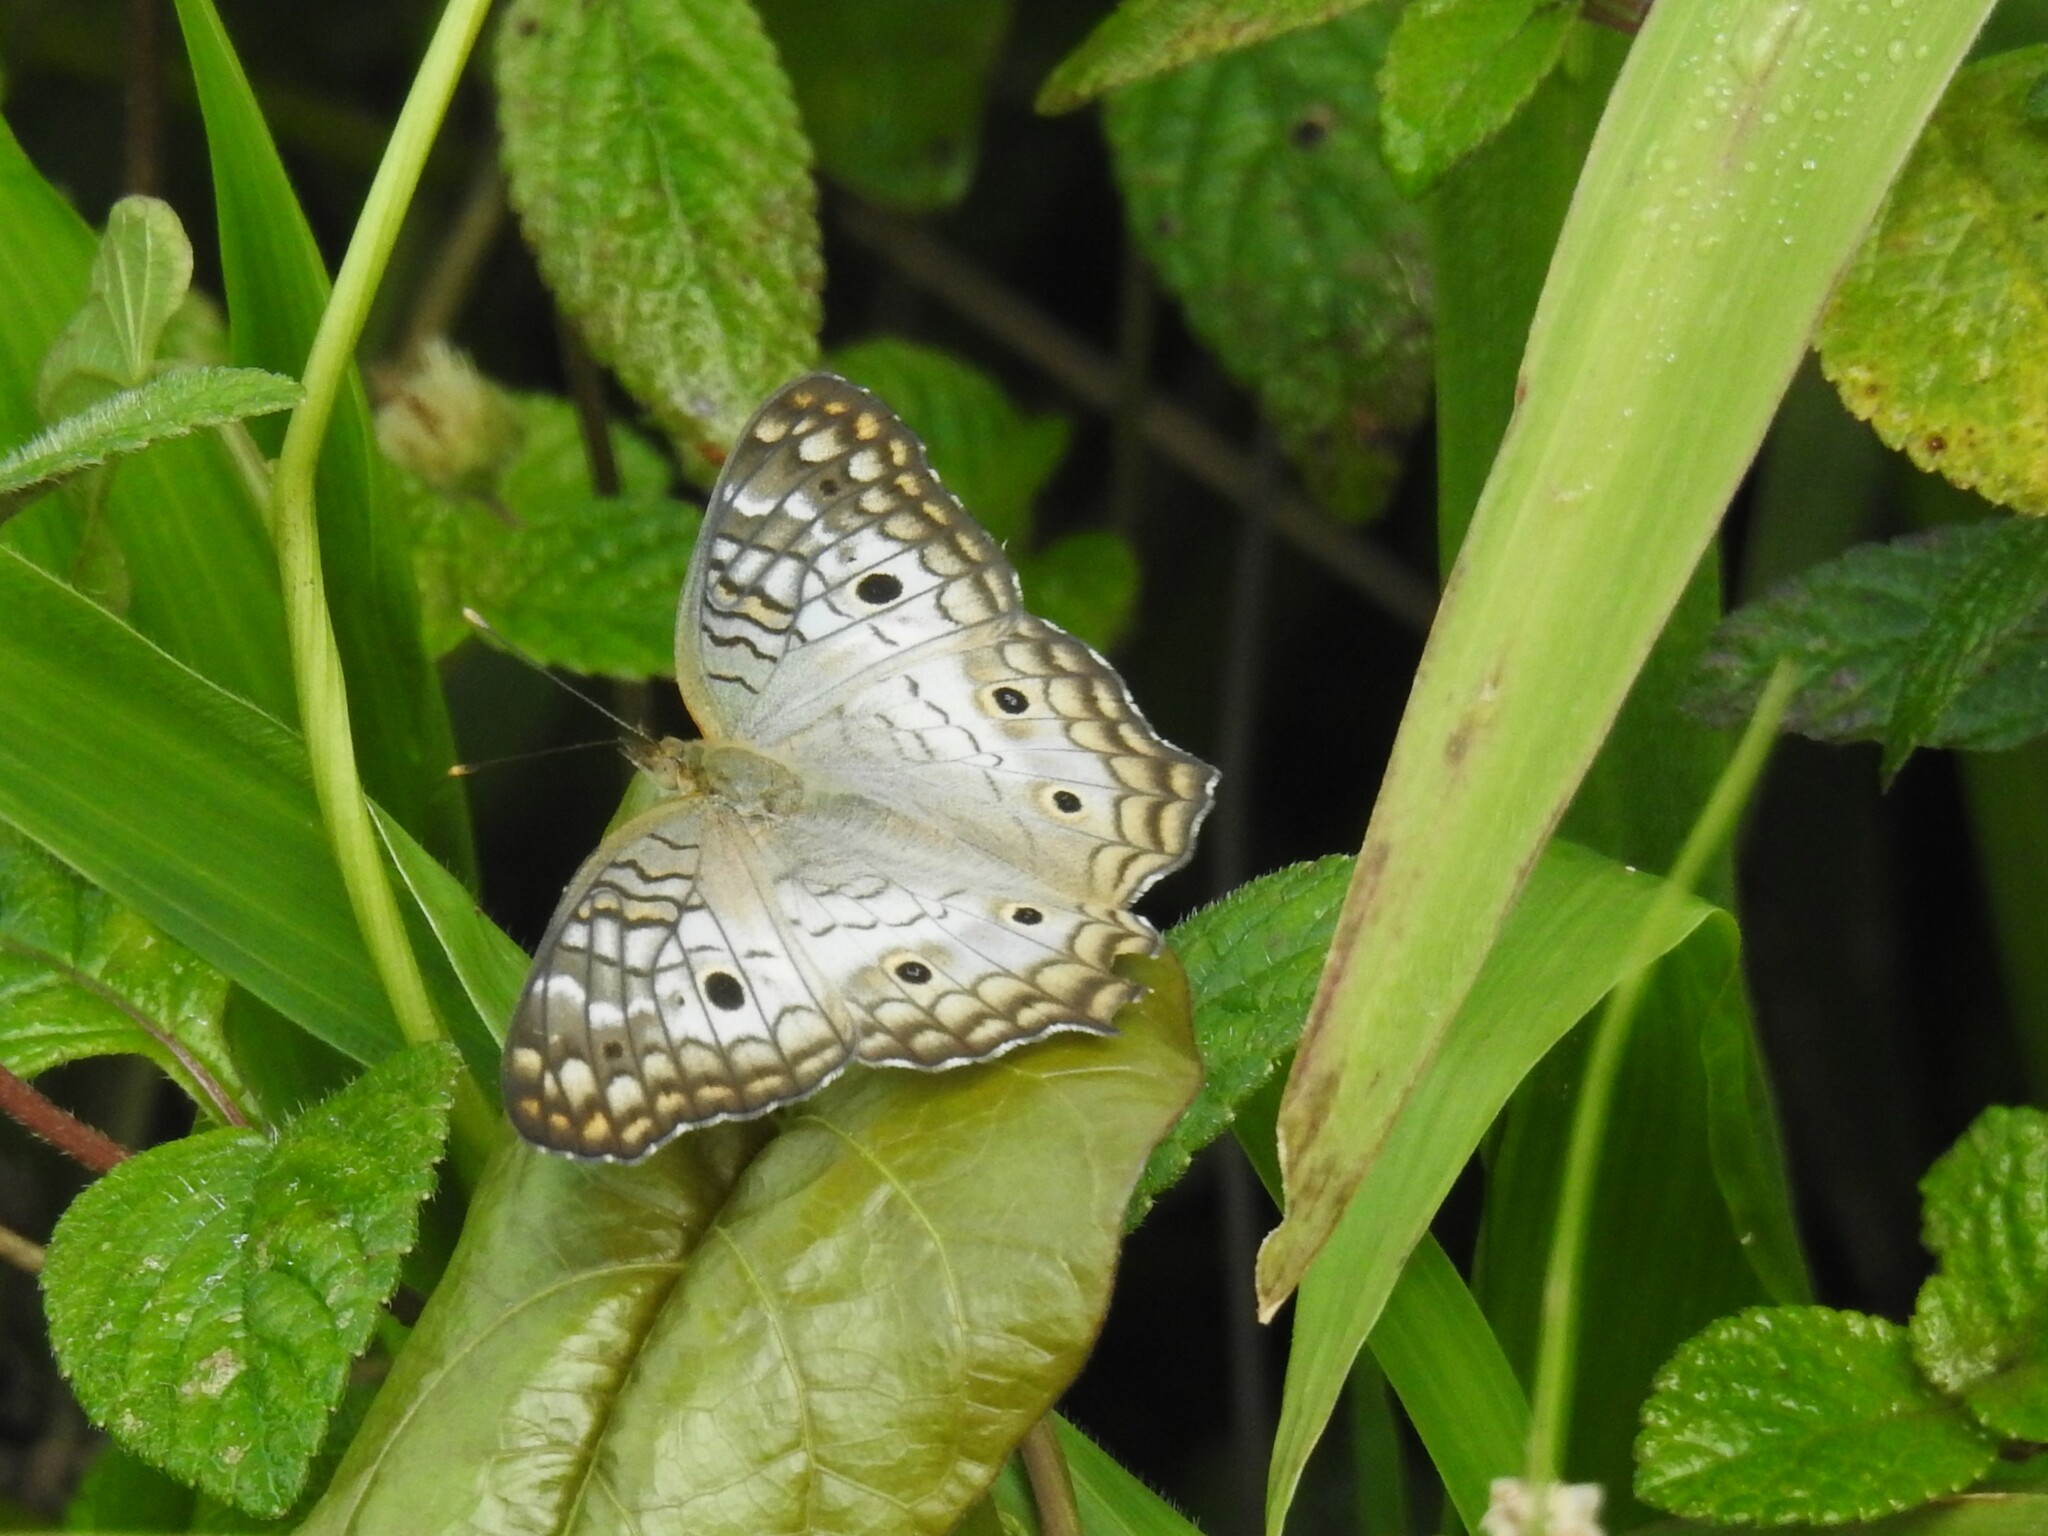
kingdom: Animalia
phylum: Arthropoda
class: Insecta
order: Lepidoptera
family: Nymphalidae
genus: Anartia
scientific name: Anartia jatrophae
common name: White peacock
